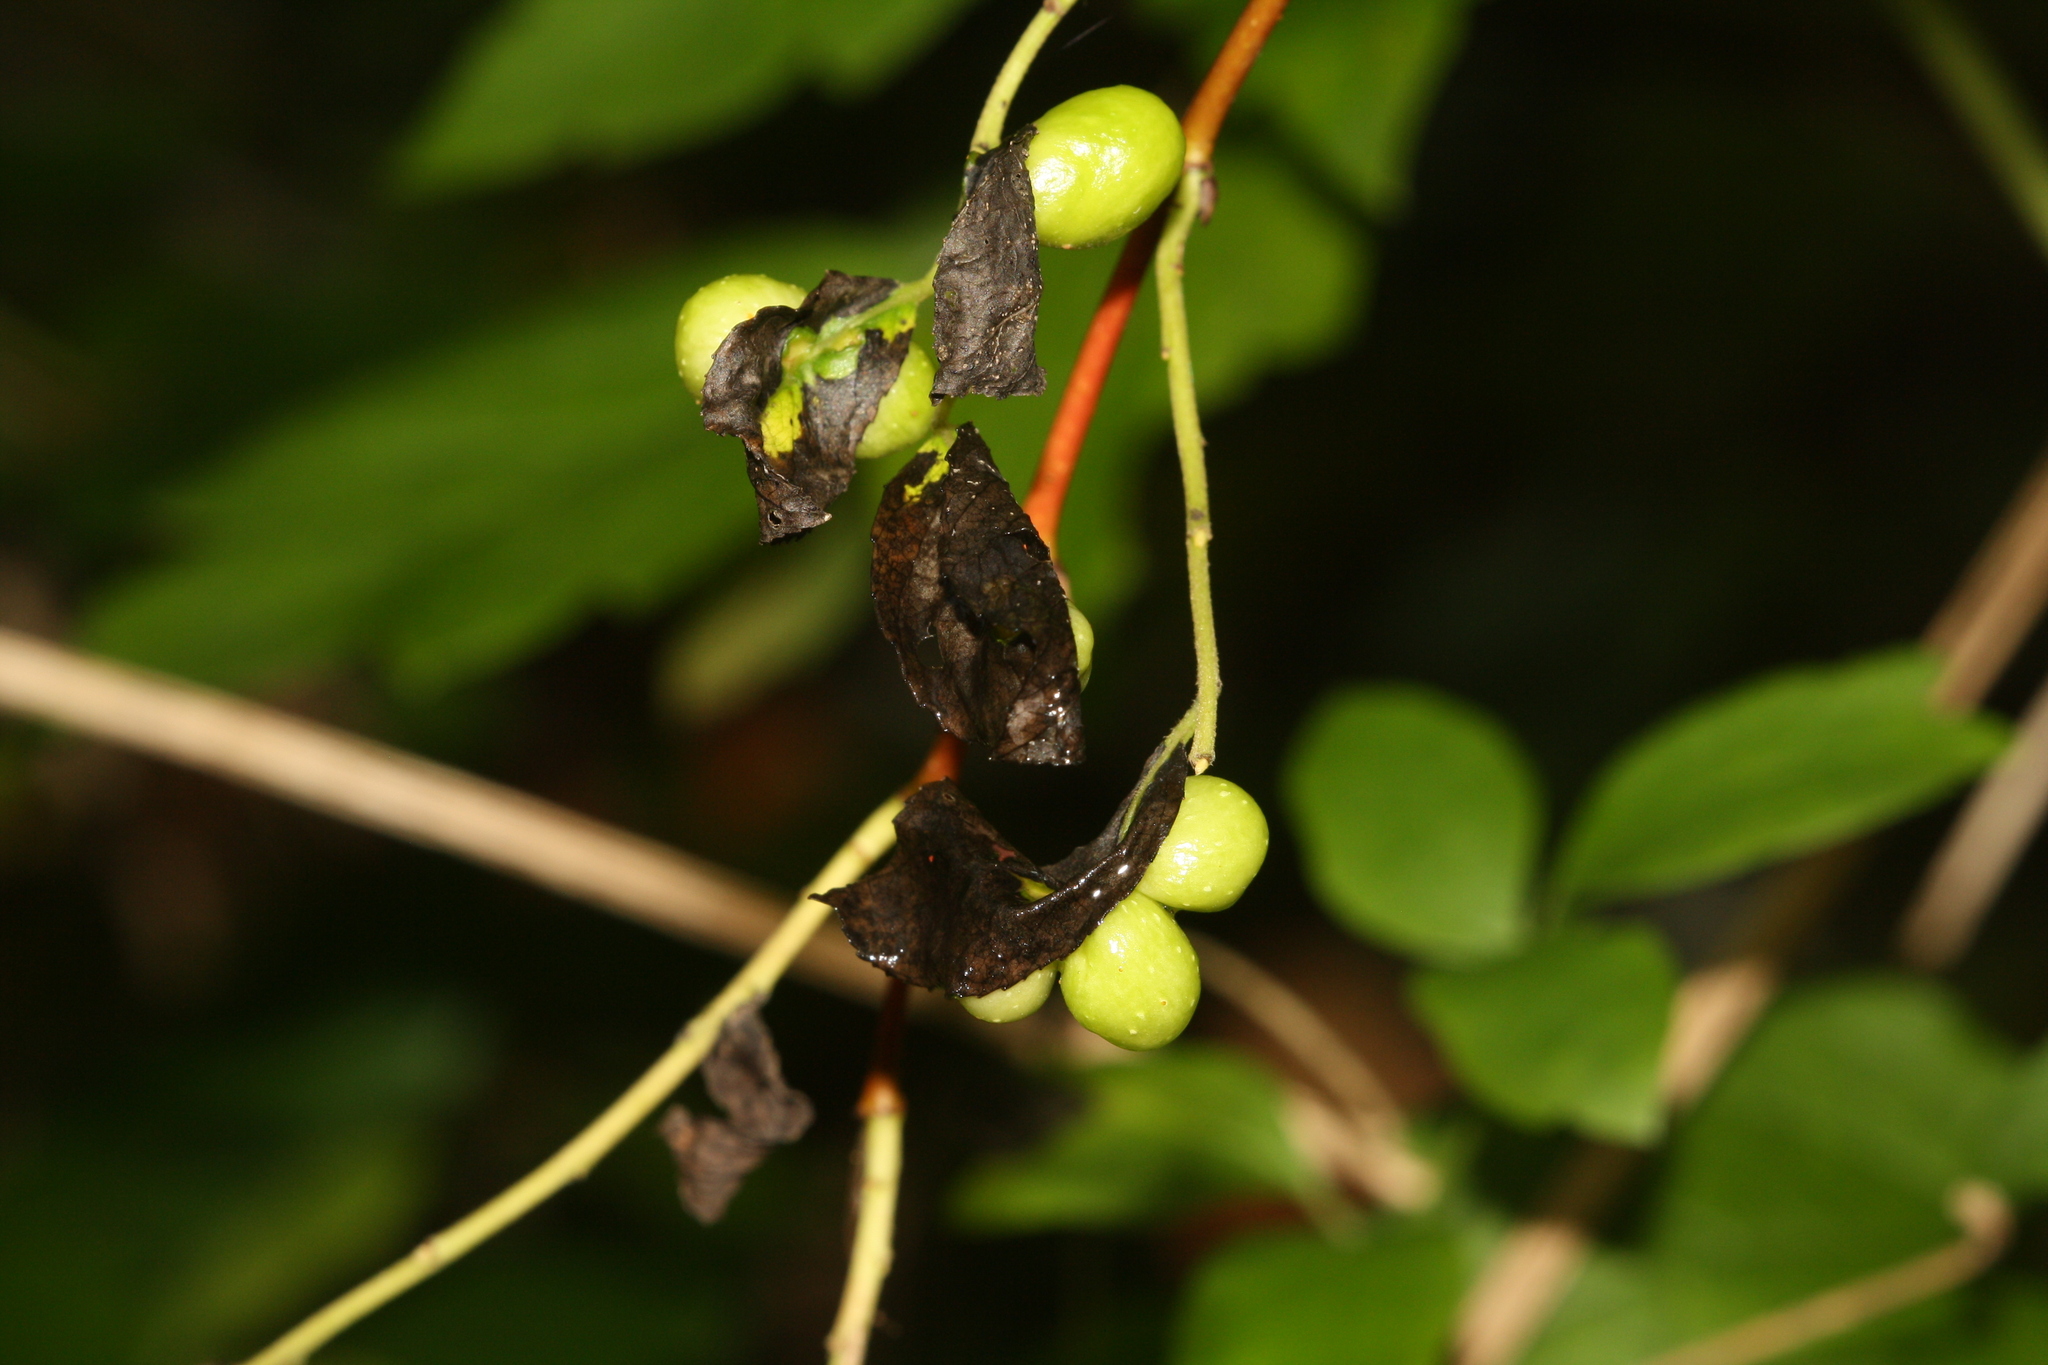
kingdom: Animalia
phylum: Arthropoda
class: Insecta
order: Hymenoptera
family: Tenthredinidae
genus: Pontania
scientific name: Pontania saliciscinereae
